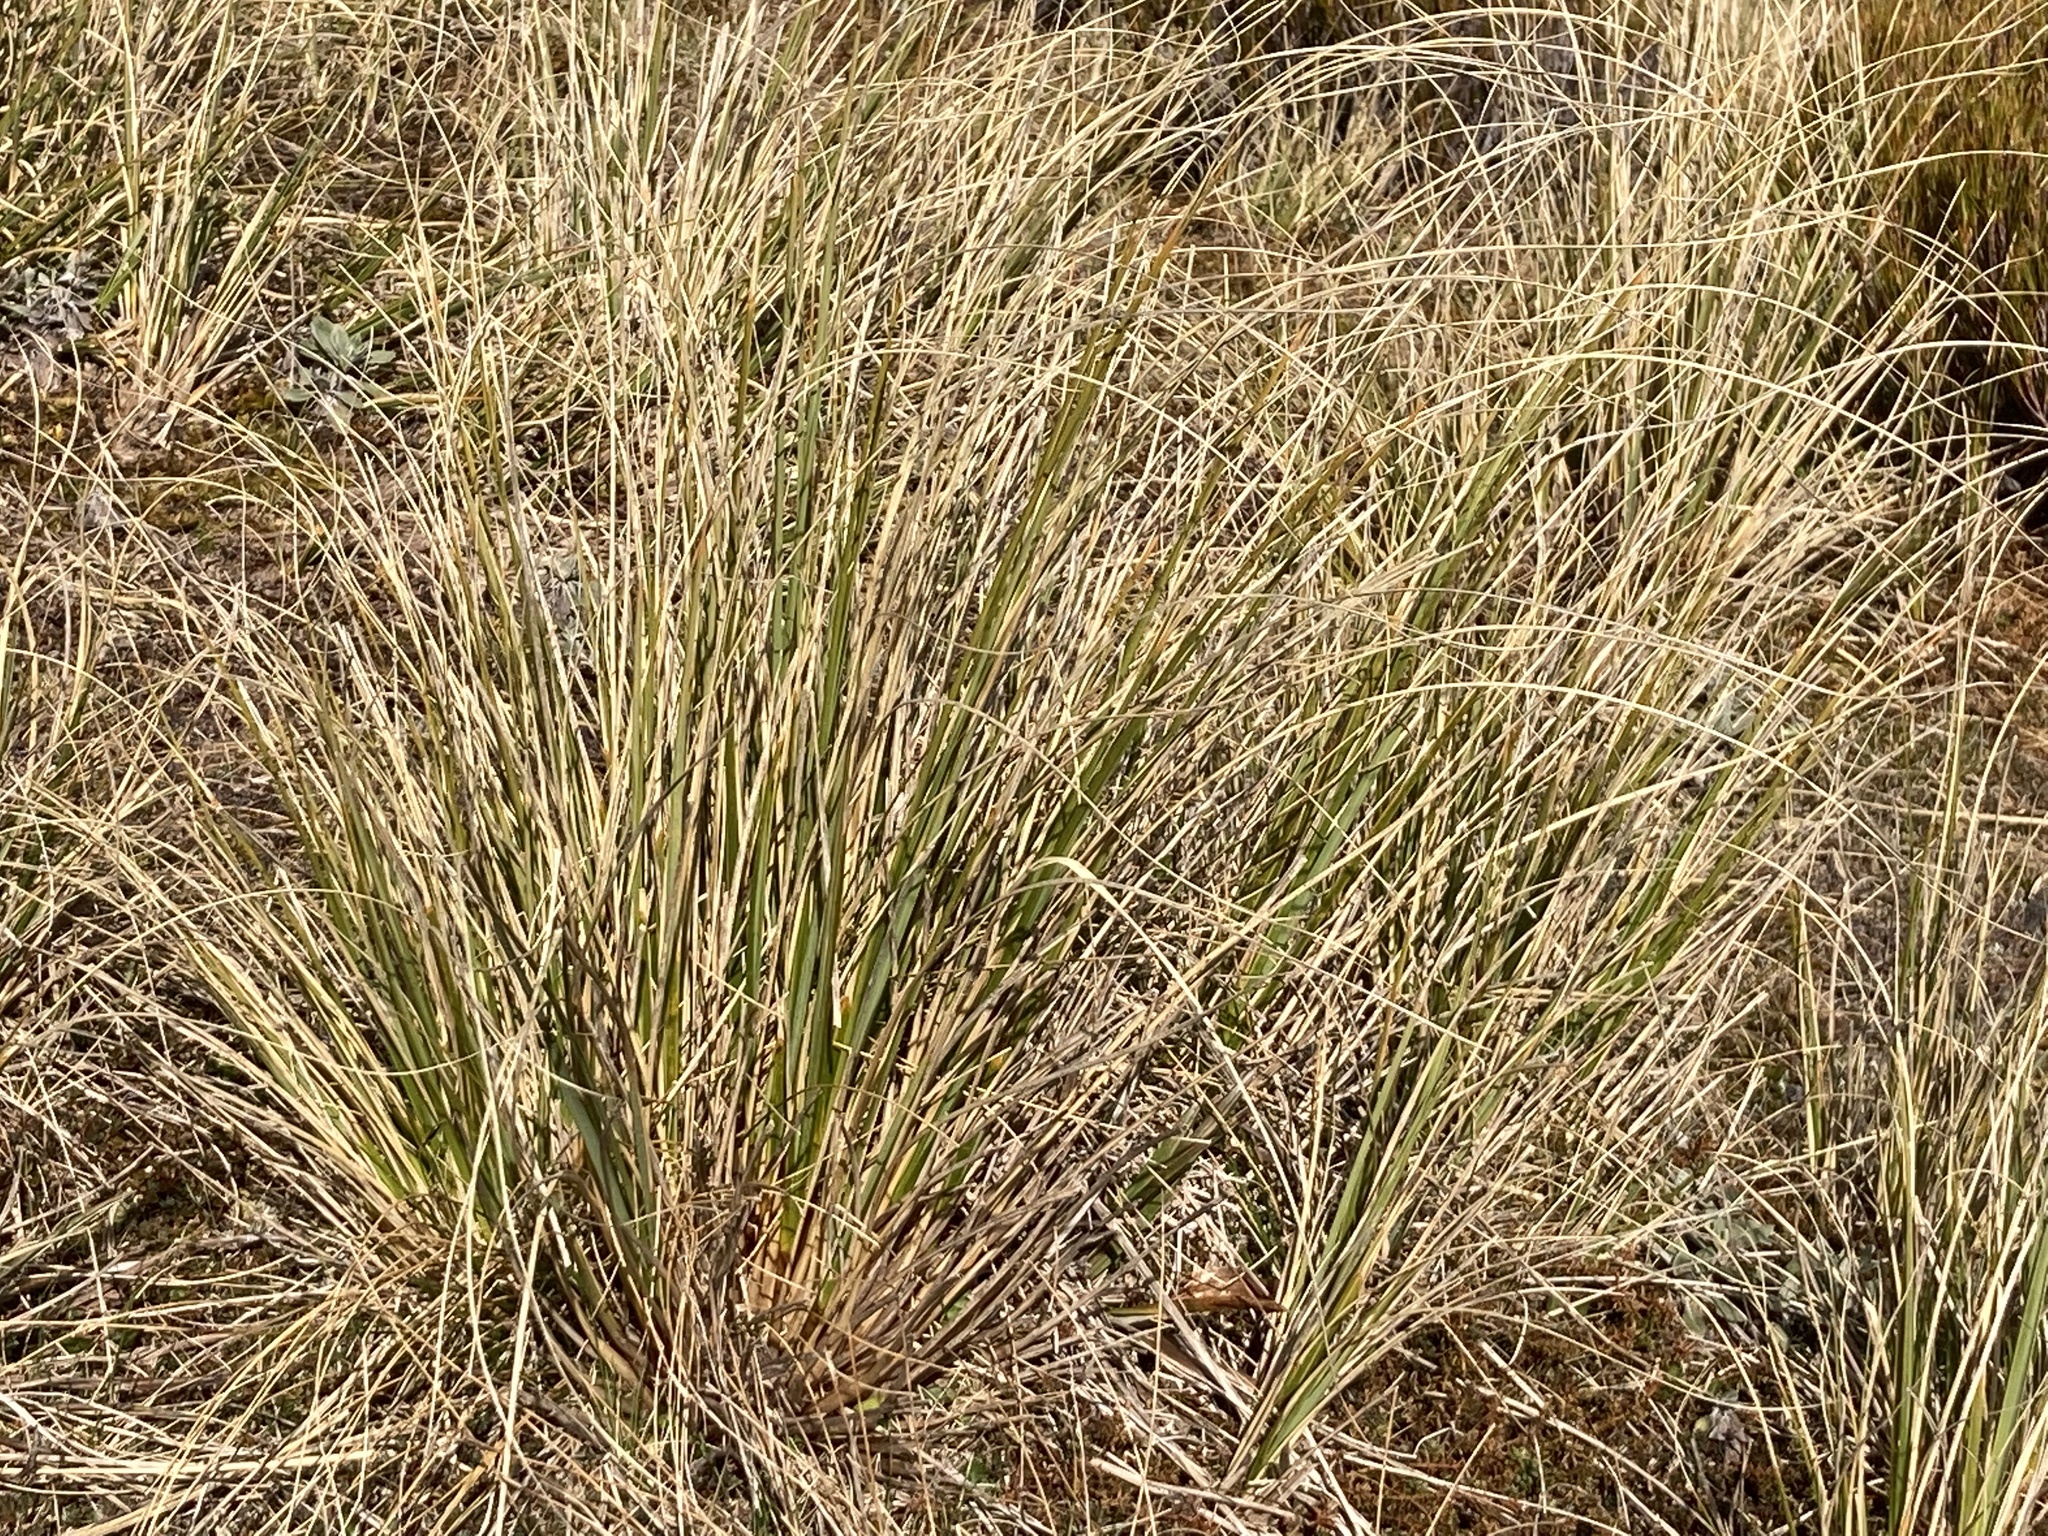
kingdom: Plantae
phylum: Tracheophyta
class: Liliopsida
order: Poales
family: Poaceae
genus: Chionochloa
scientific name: Chionochloa pallens
